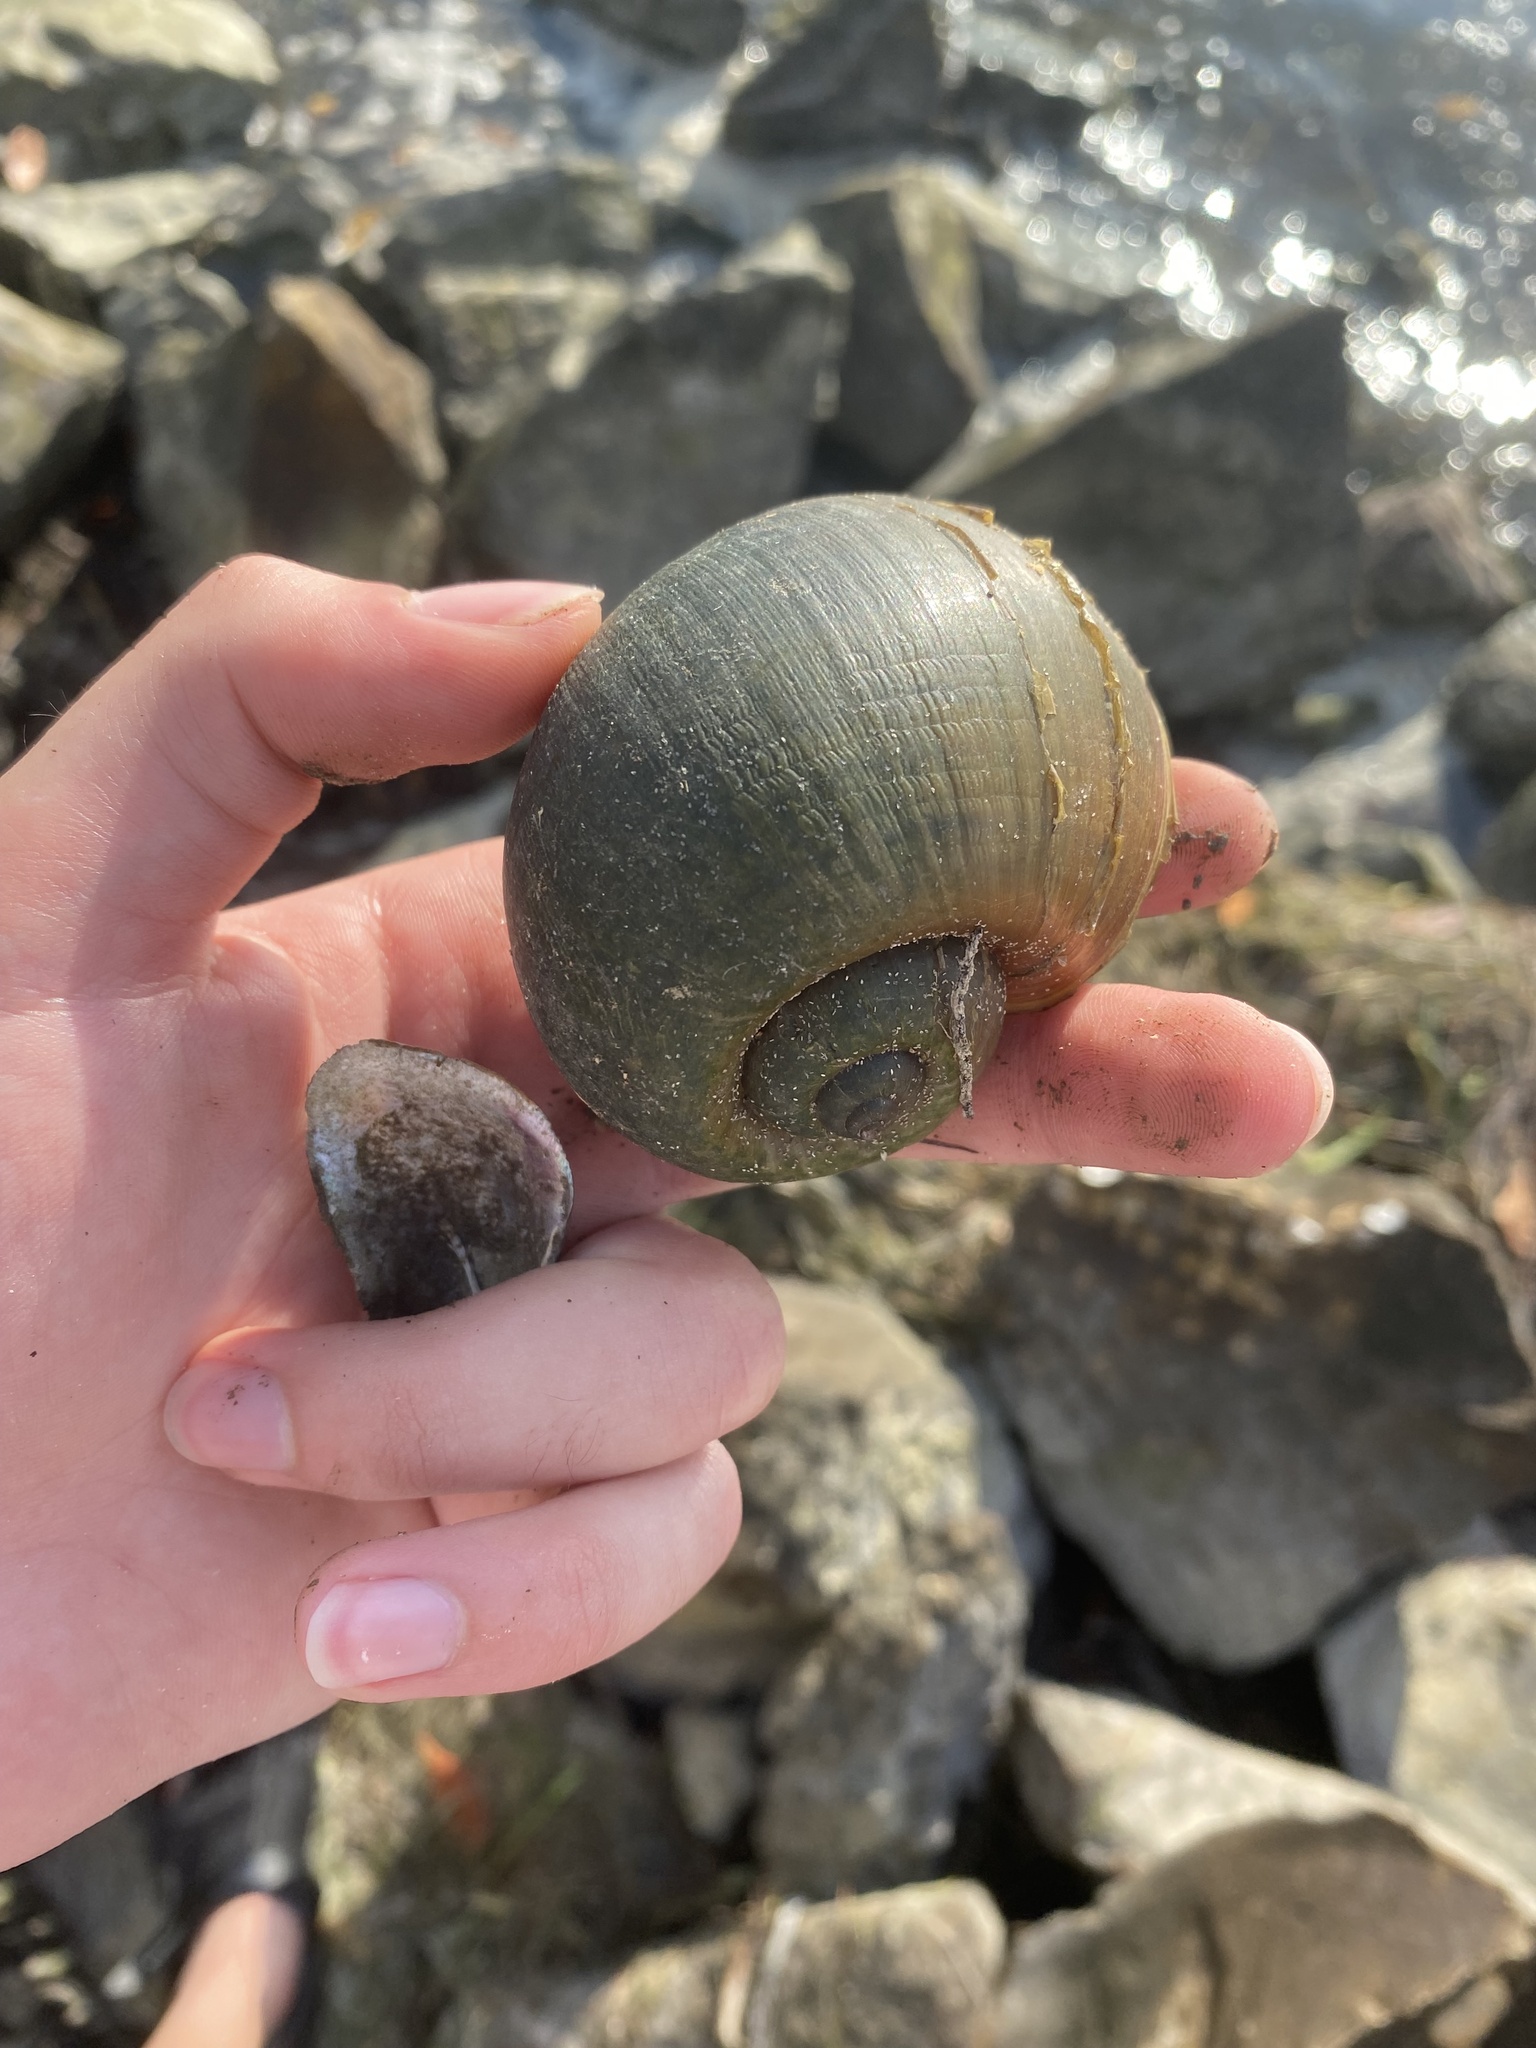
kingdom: Animalia
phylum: Mollusca
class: Gastropoda
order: Architaenioglossa
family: Ampullariidae
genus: Pomacea
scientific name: Pomacea maculata
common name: Giant applesnail
